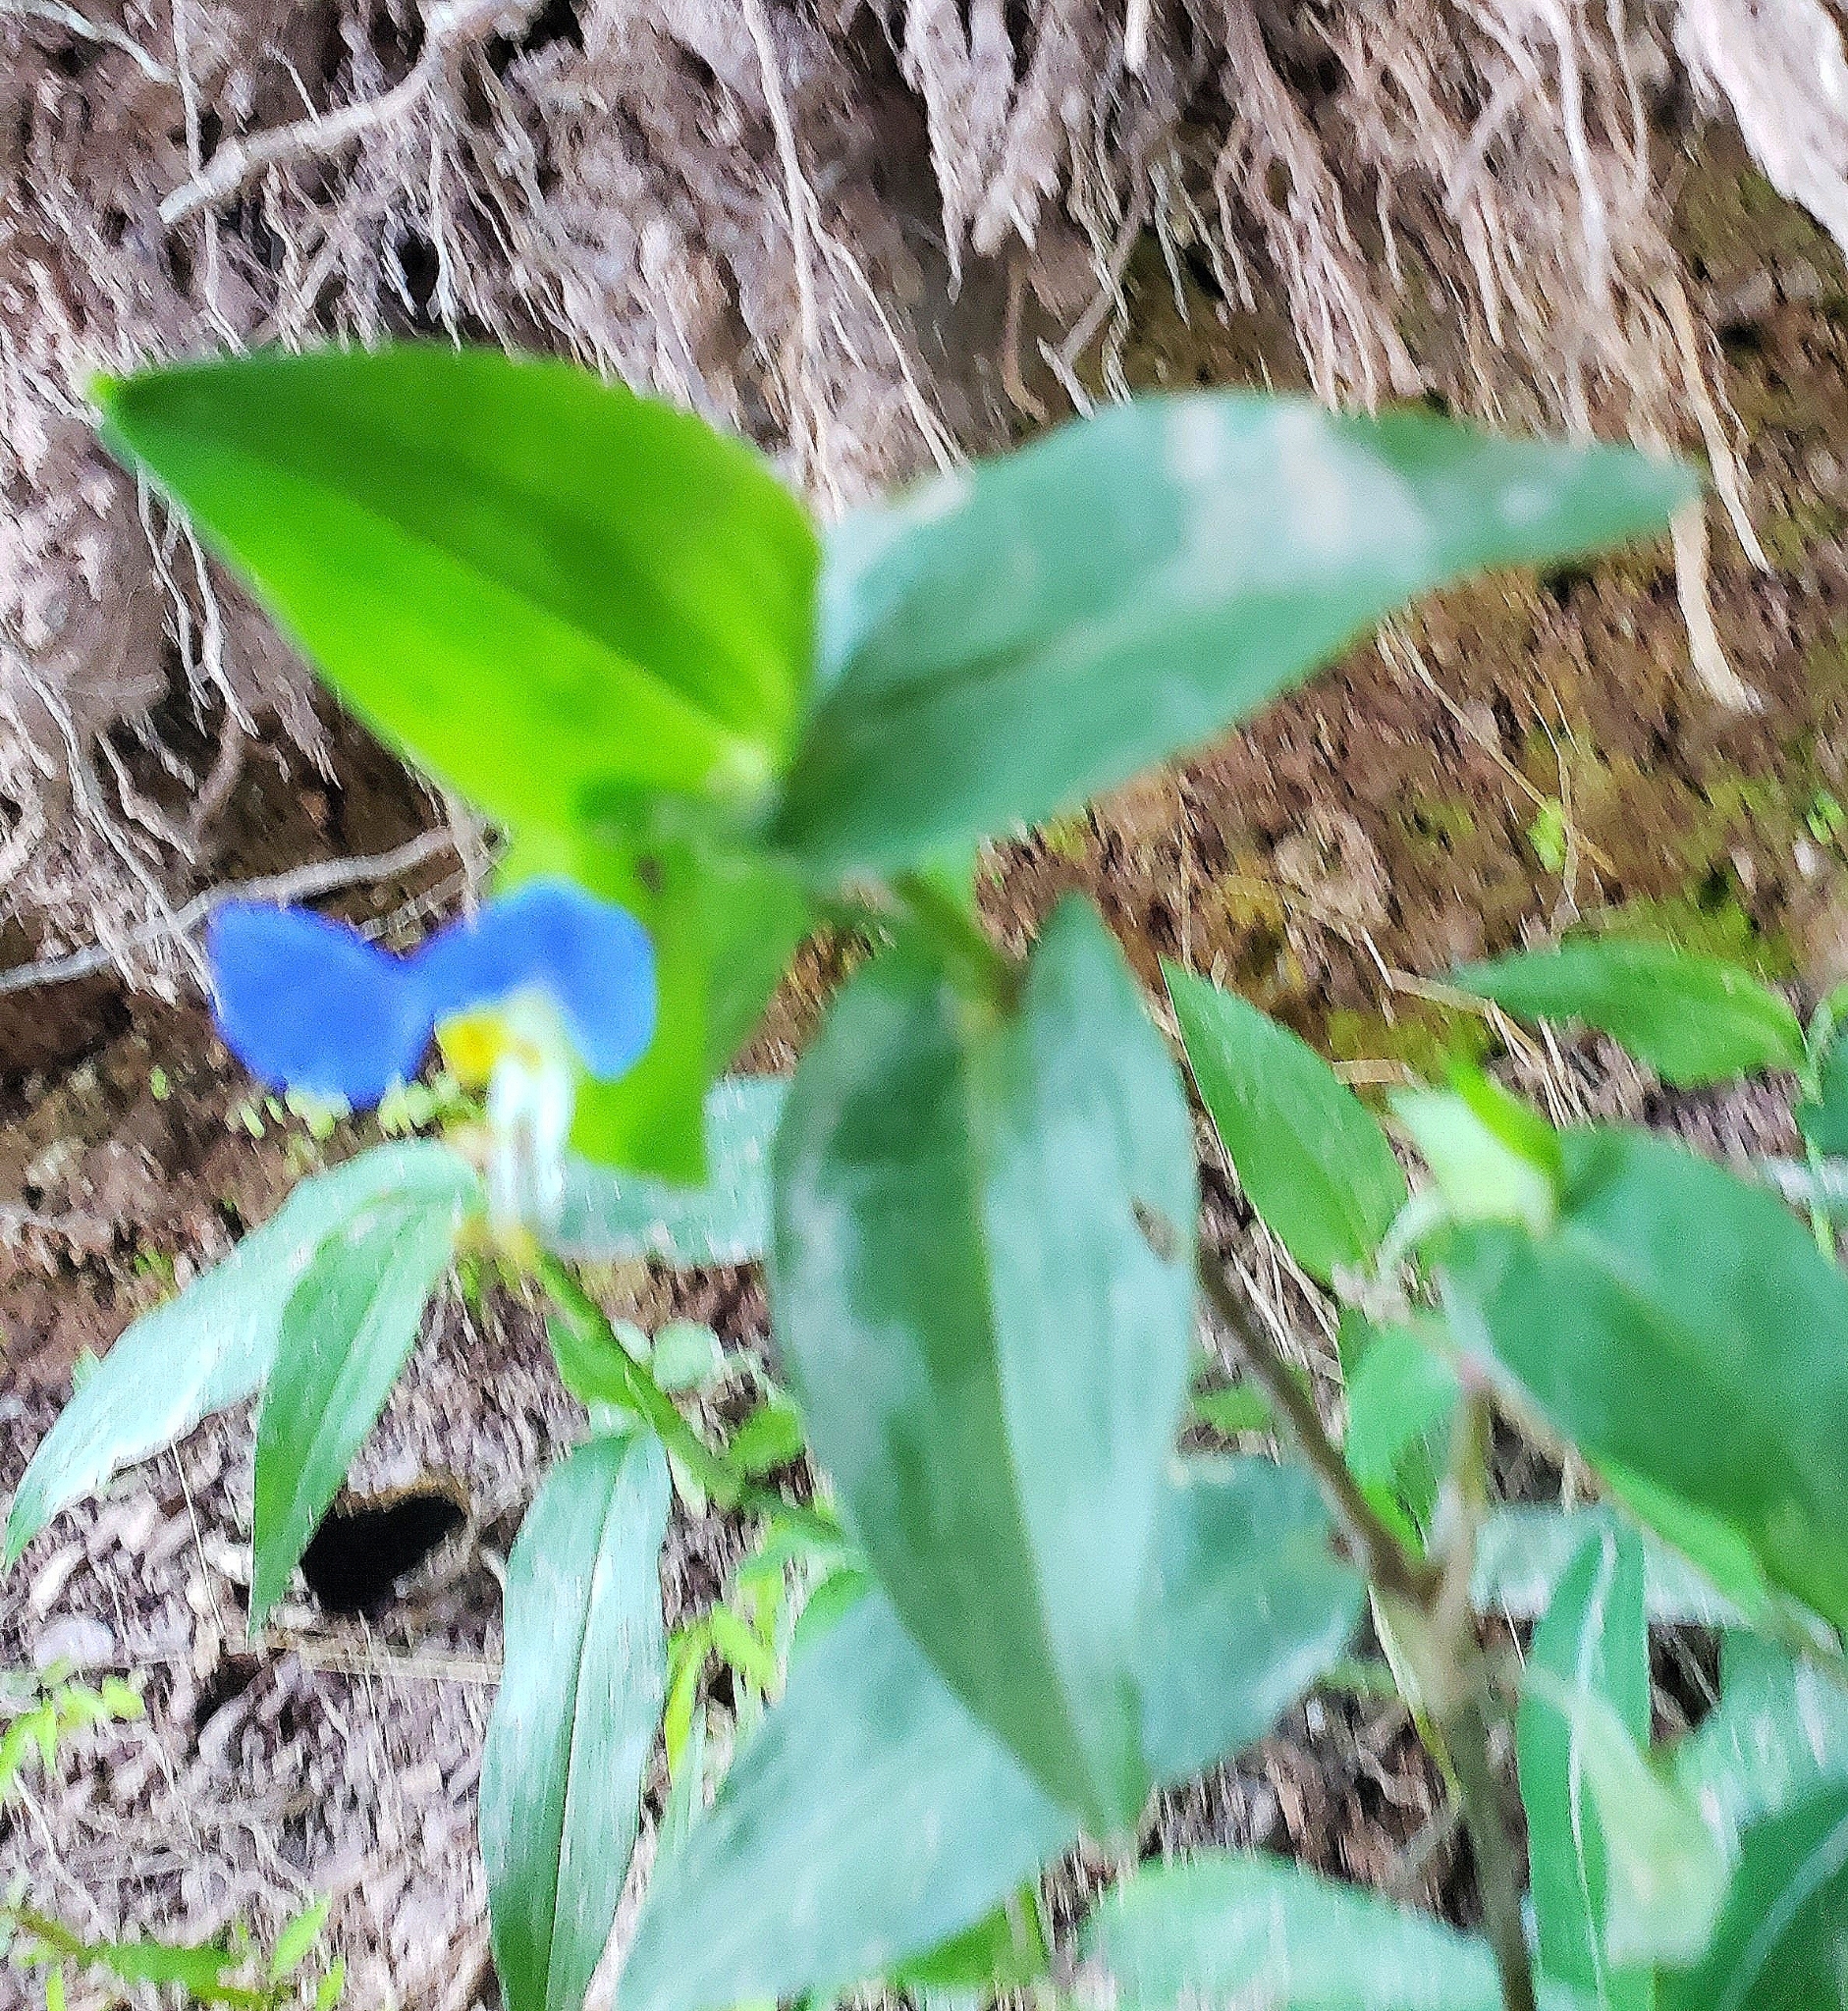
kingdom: Plantae
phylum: Tracheophyta
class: Liliopsida
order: Commelinales
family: Commelinaceae
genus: Commelina
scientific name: Commelina communis
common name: Asiatic dayflower
